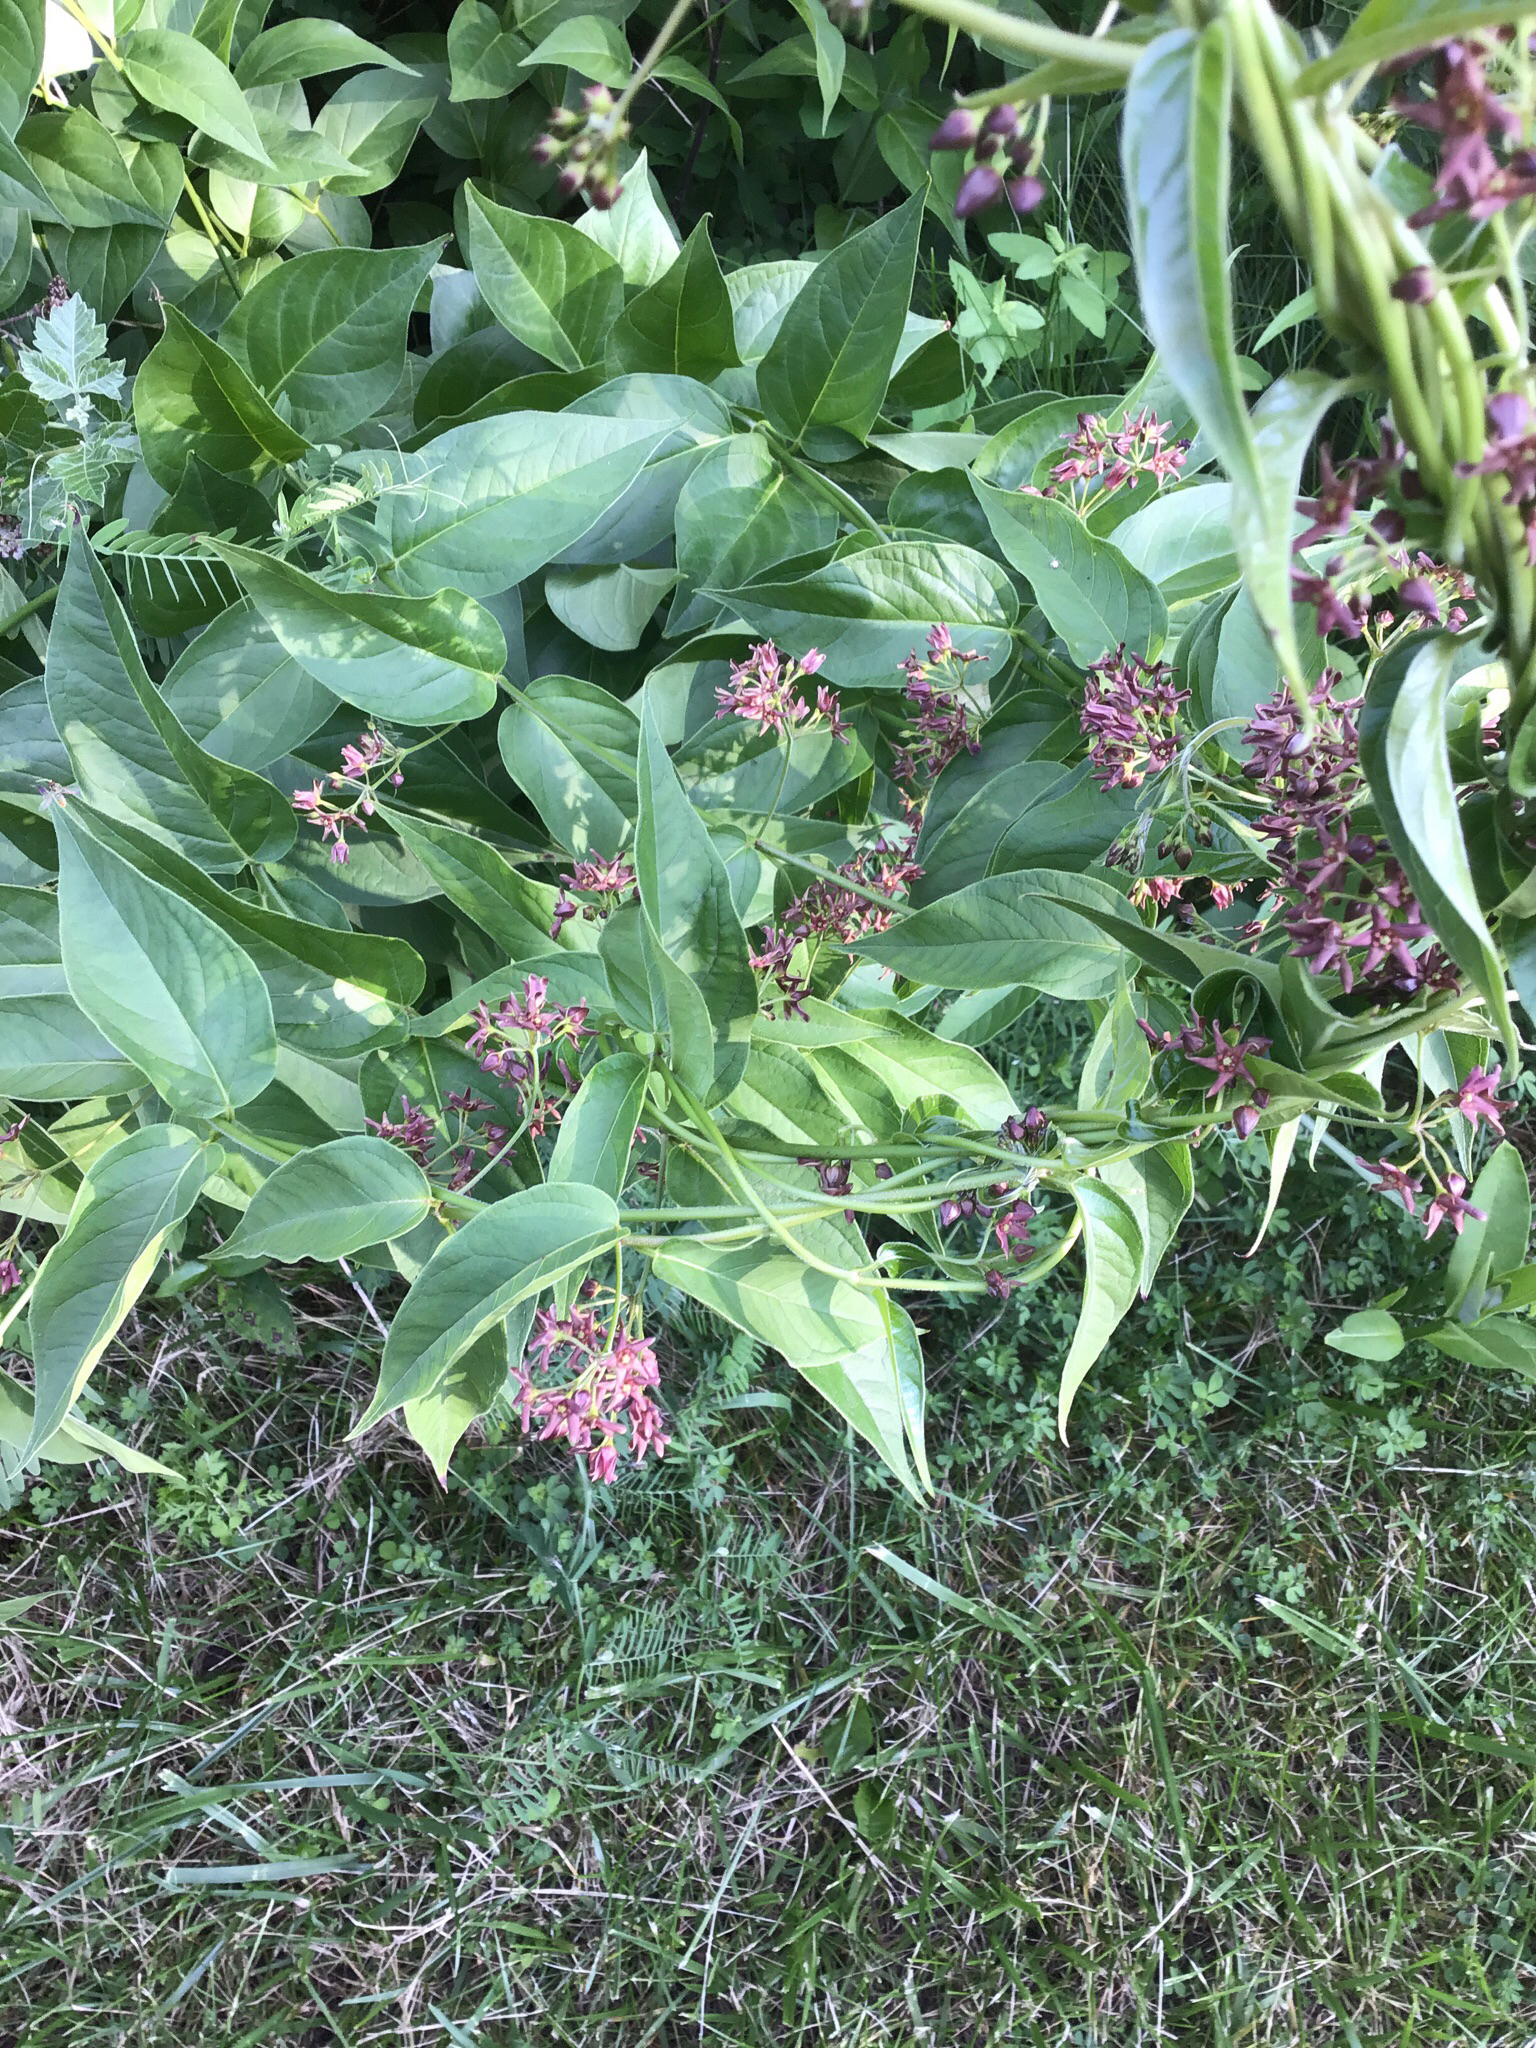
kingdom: Plantae
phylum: Tracheophyta
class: Magnoliopsida
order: Gentianales
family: Apocynaceae
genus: Vincetoxicum
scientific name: Vincetoxicum rossicum
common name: Dog-strangling vine
